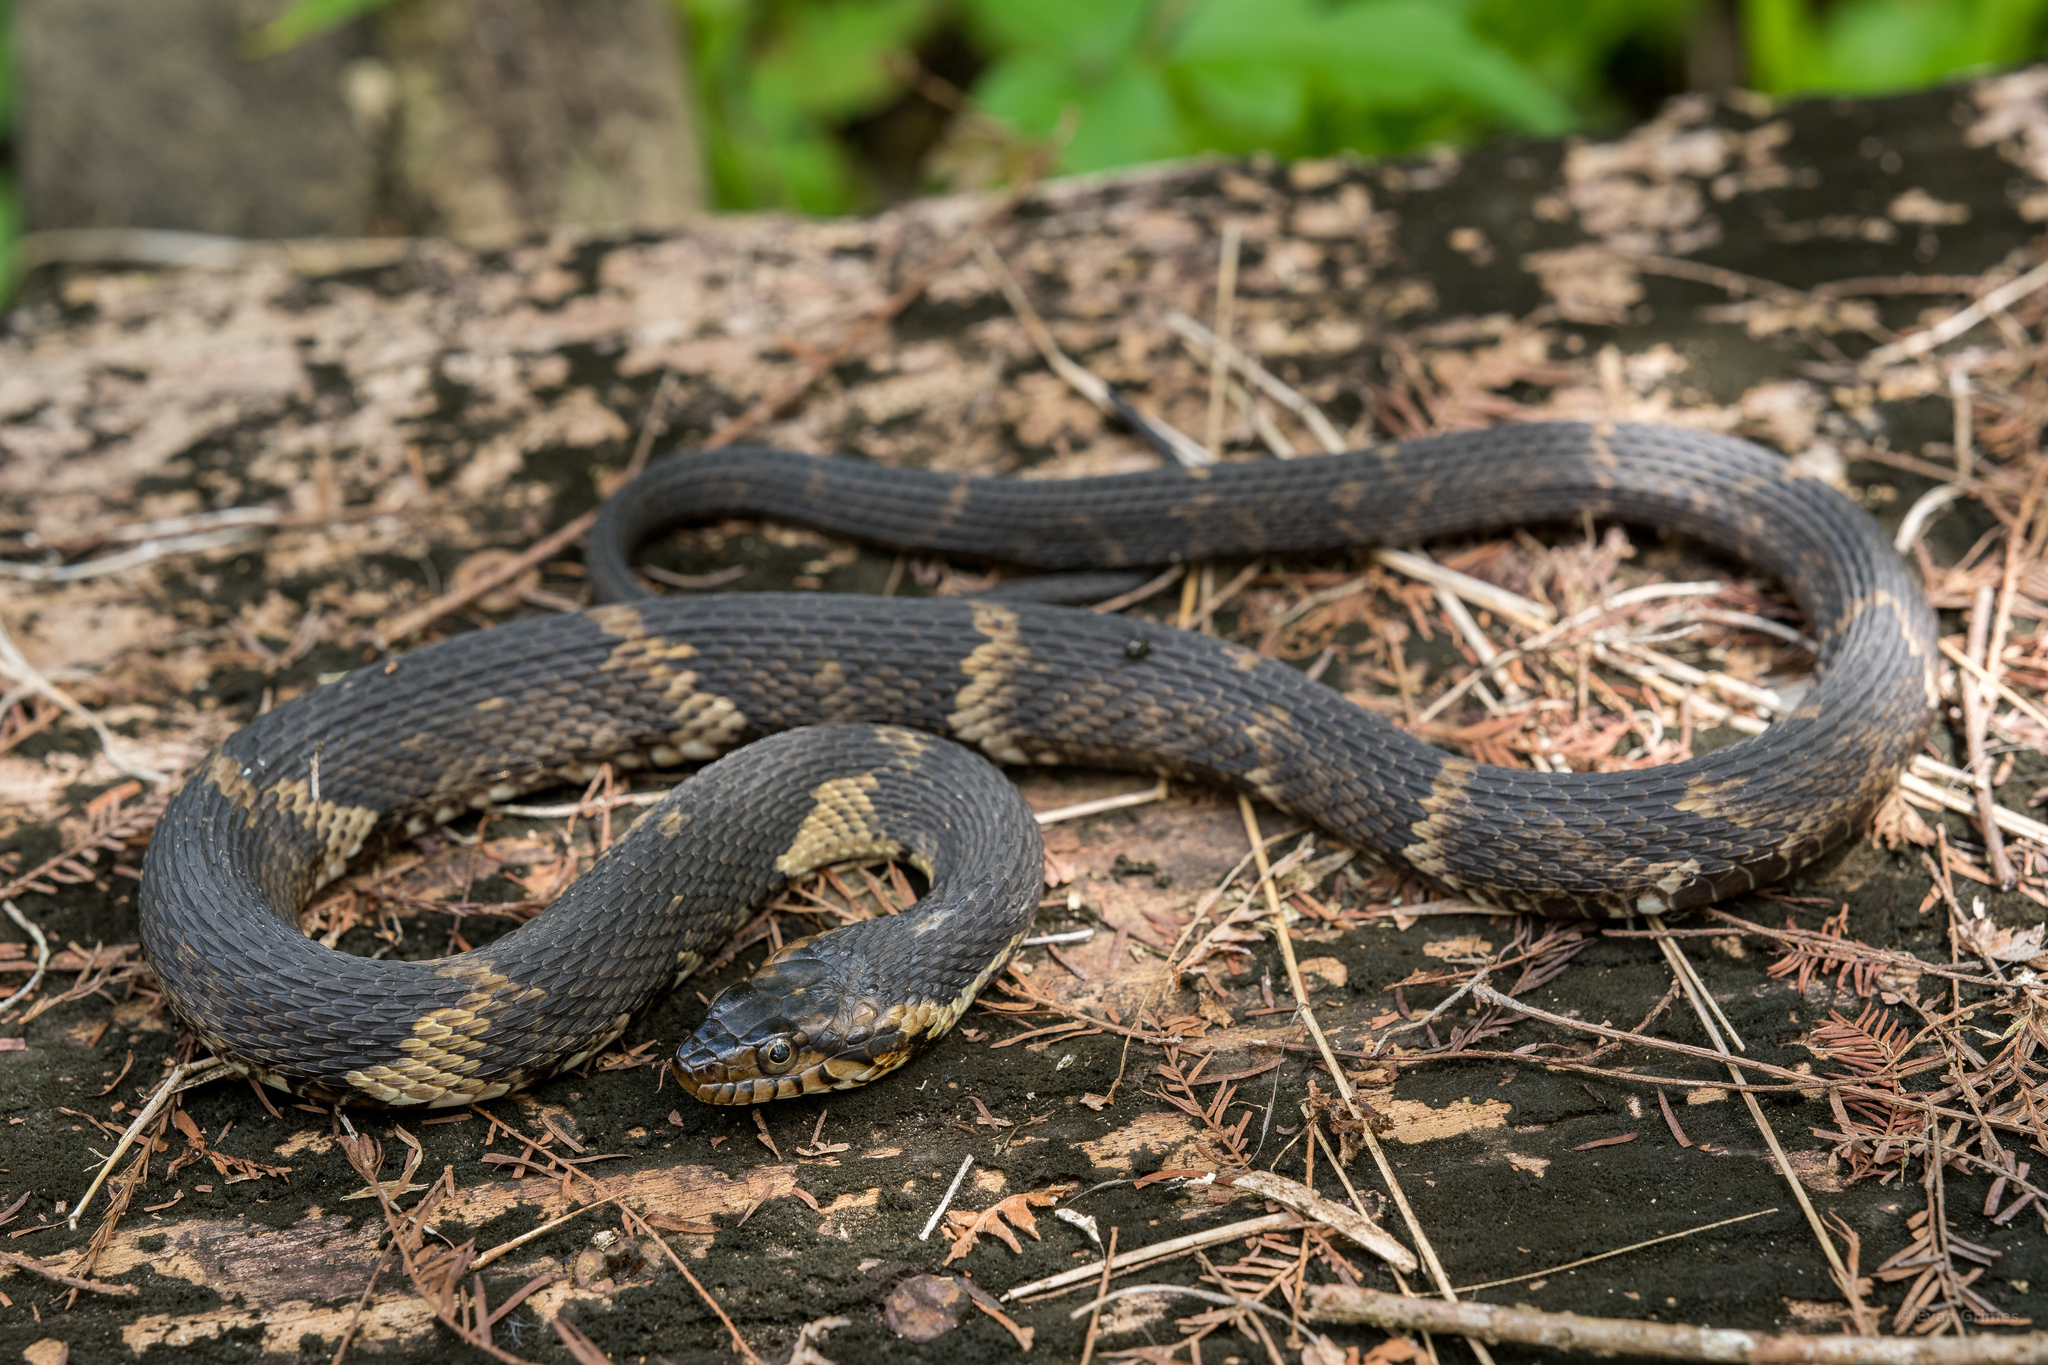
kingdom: Animalia
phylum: Chordata
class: Squamata
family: Colubridae
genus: Nerodia
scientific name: Nerodia fasciata
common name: Southern water snake
